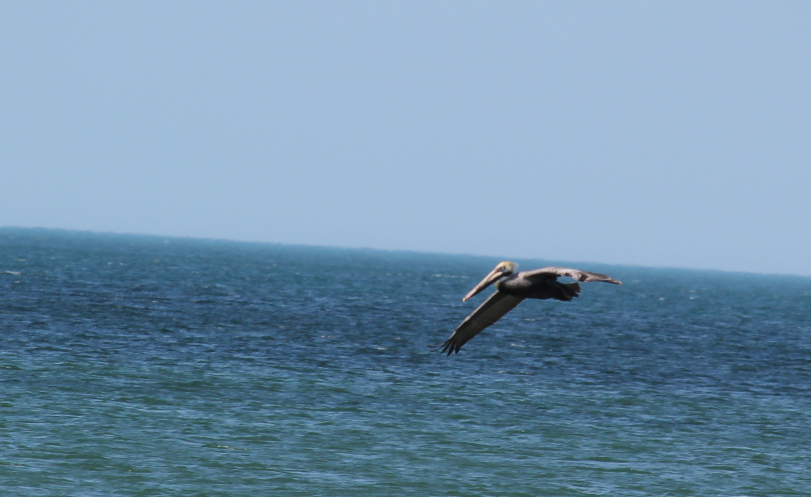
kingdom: Animalia
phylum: Chordata
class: Aves
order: Pelecaniformes
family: Pelecanidae
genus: Pelecanus
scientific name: Pelecanus occidentalis
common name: Brown pelican
